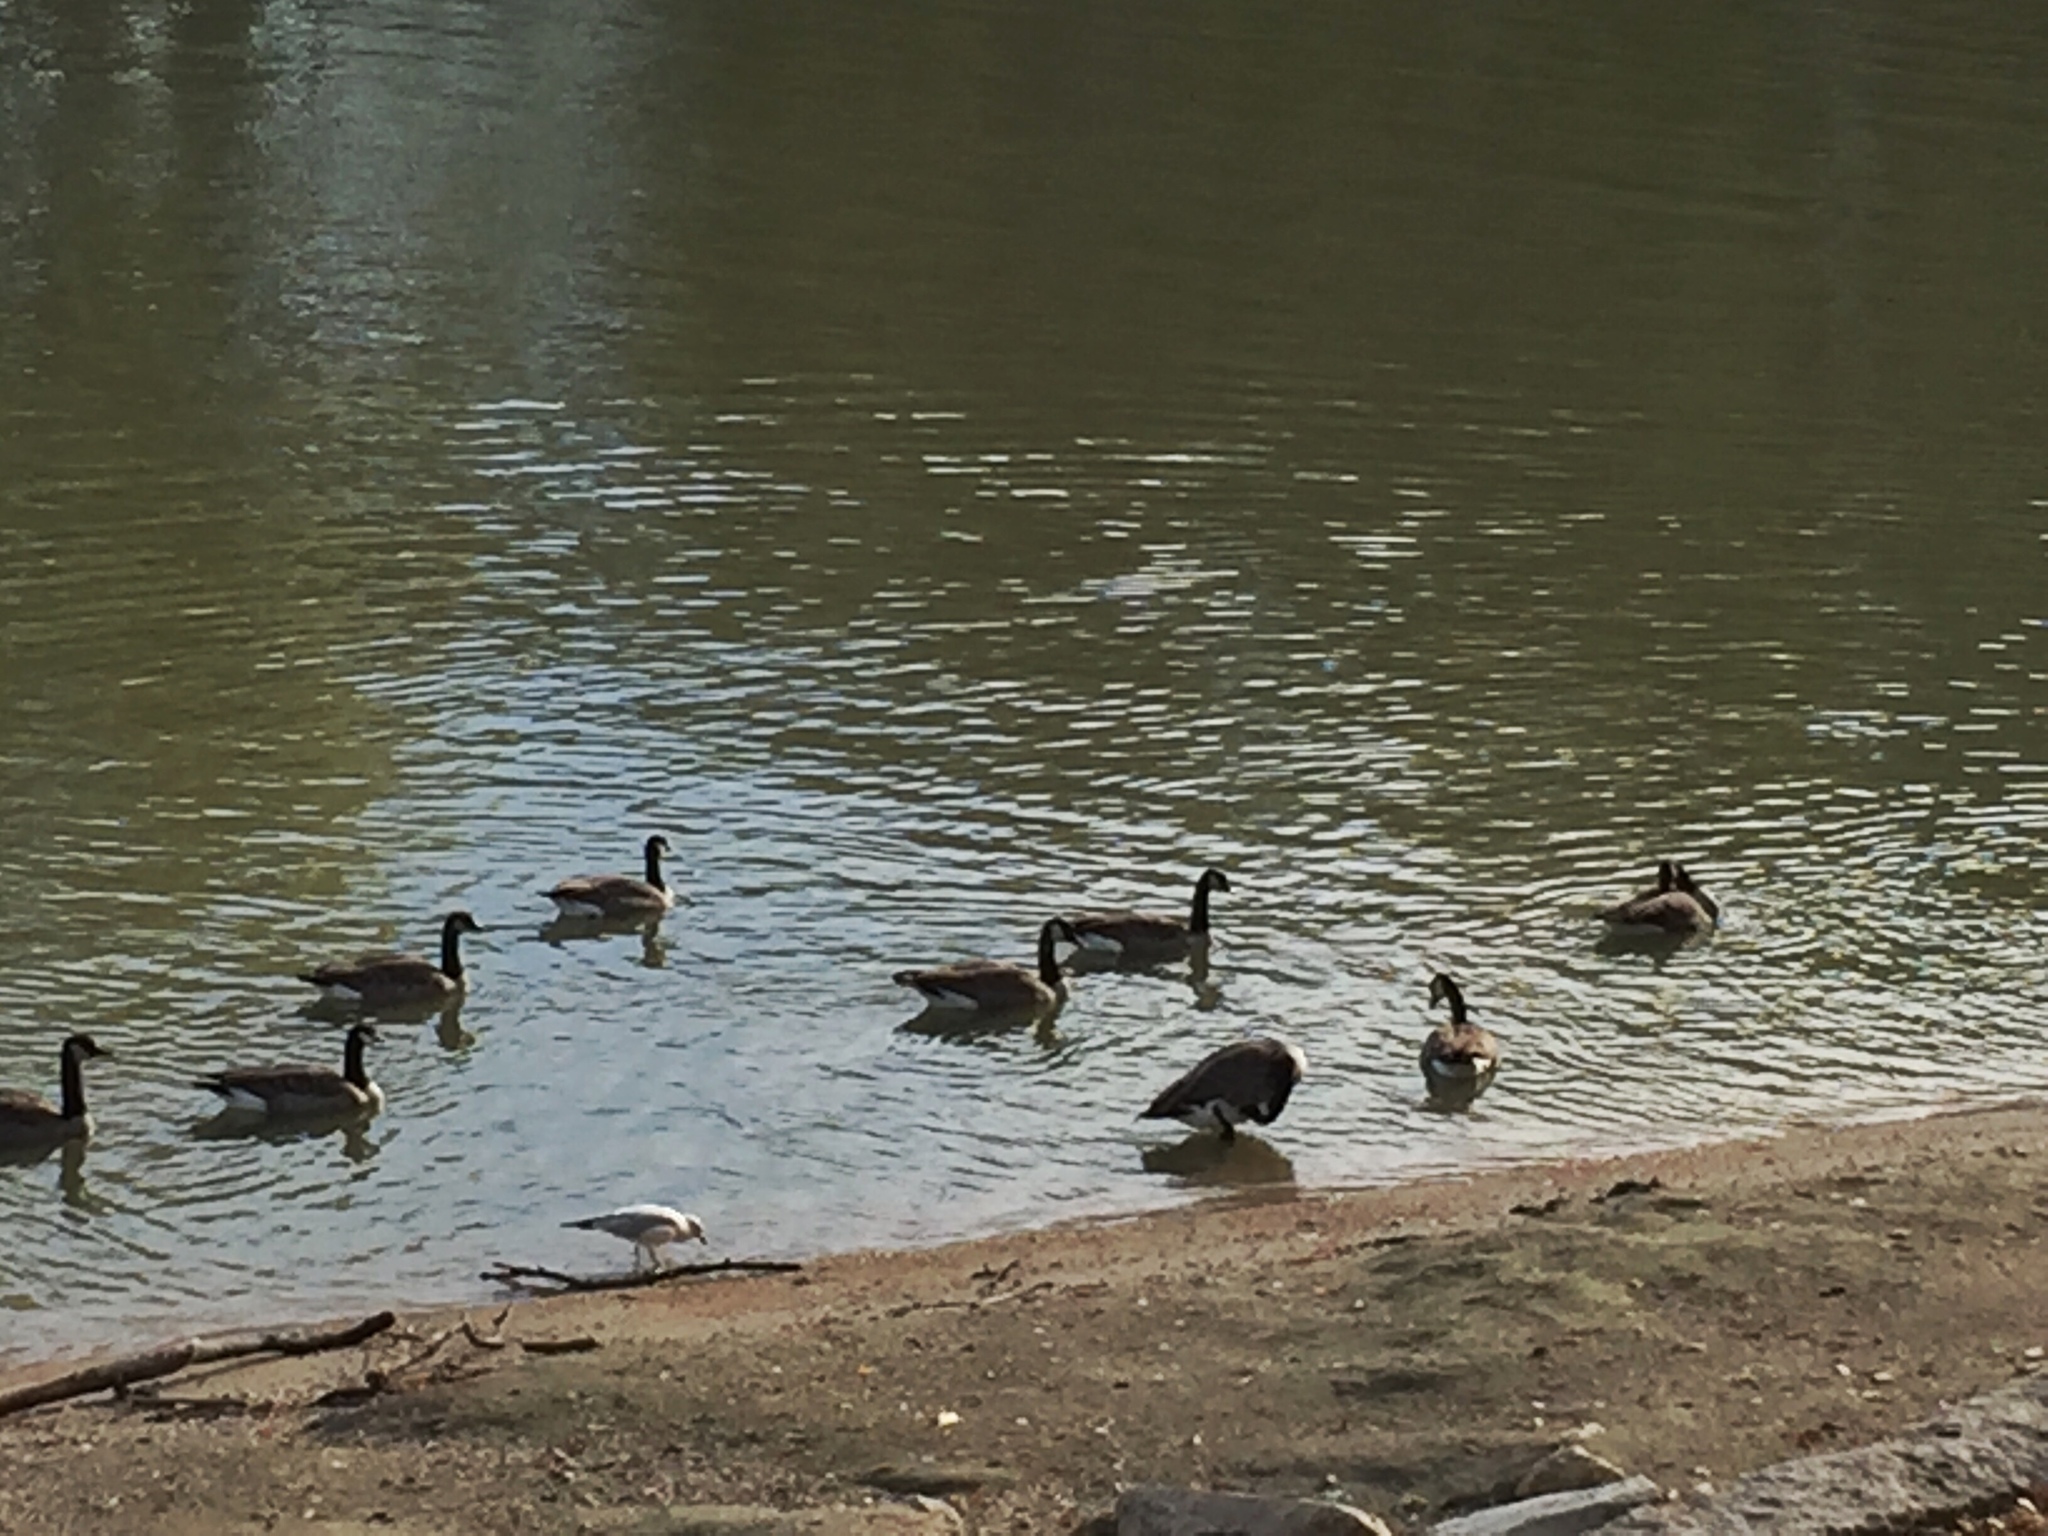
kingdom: Animalia
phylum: Chordata
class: Aves
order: Anseriformes
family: Anatidae
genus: Branta
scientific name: Branta canadensis
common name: Canada goose
